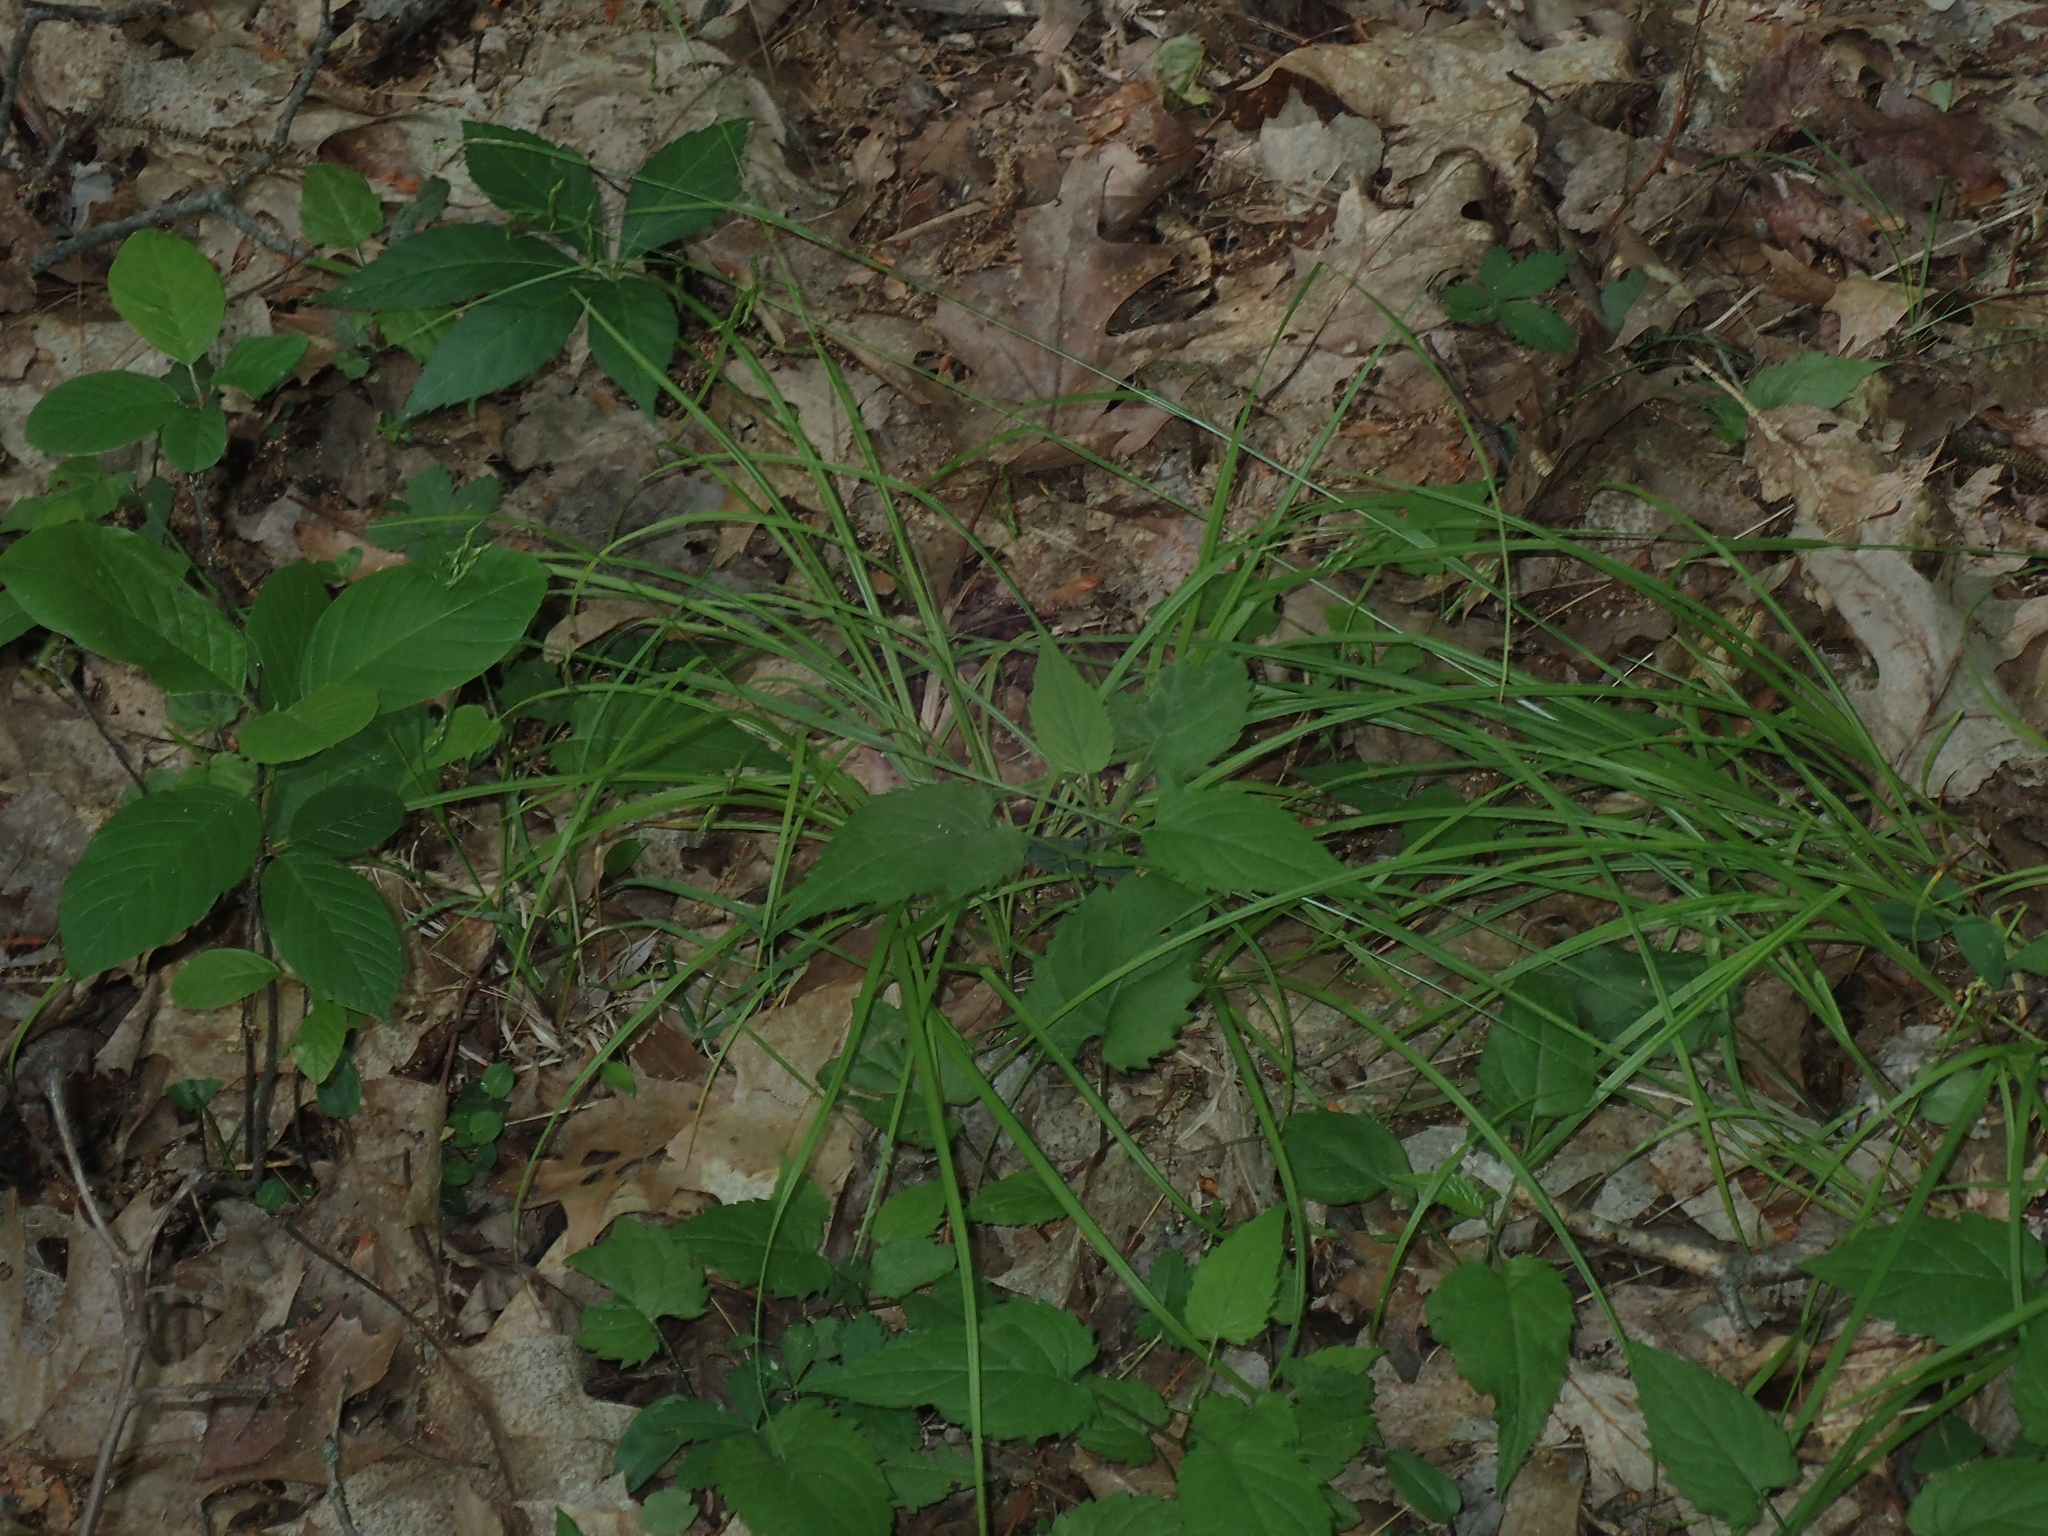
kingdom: Plantae
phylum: Tracheophyta
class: Liliopsida
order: Poales
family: Cyperaceae
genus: Carex
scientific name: Carex debilis
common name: White-edge sedge
